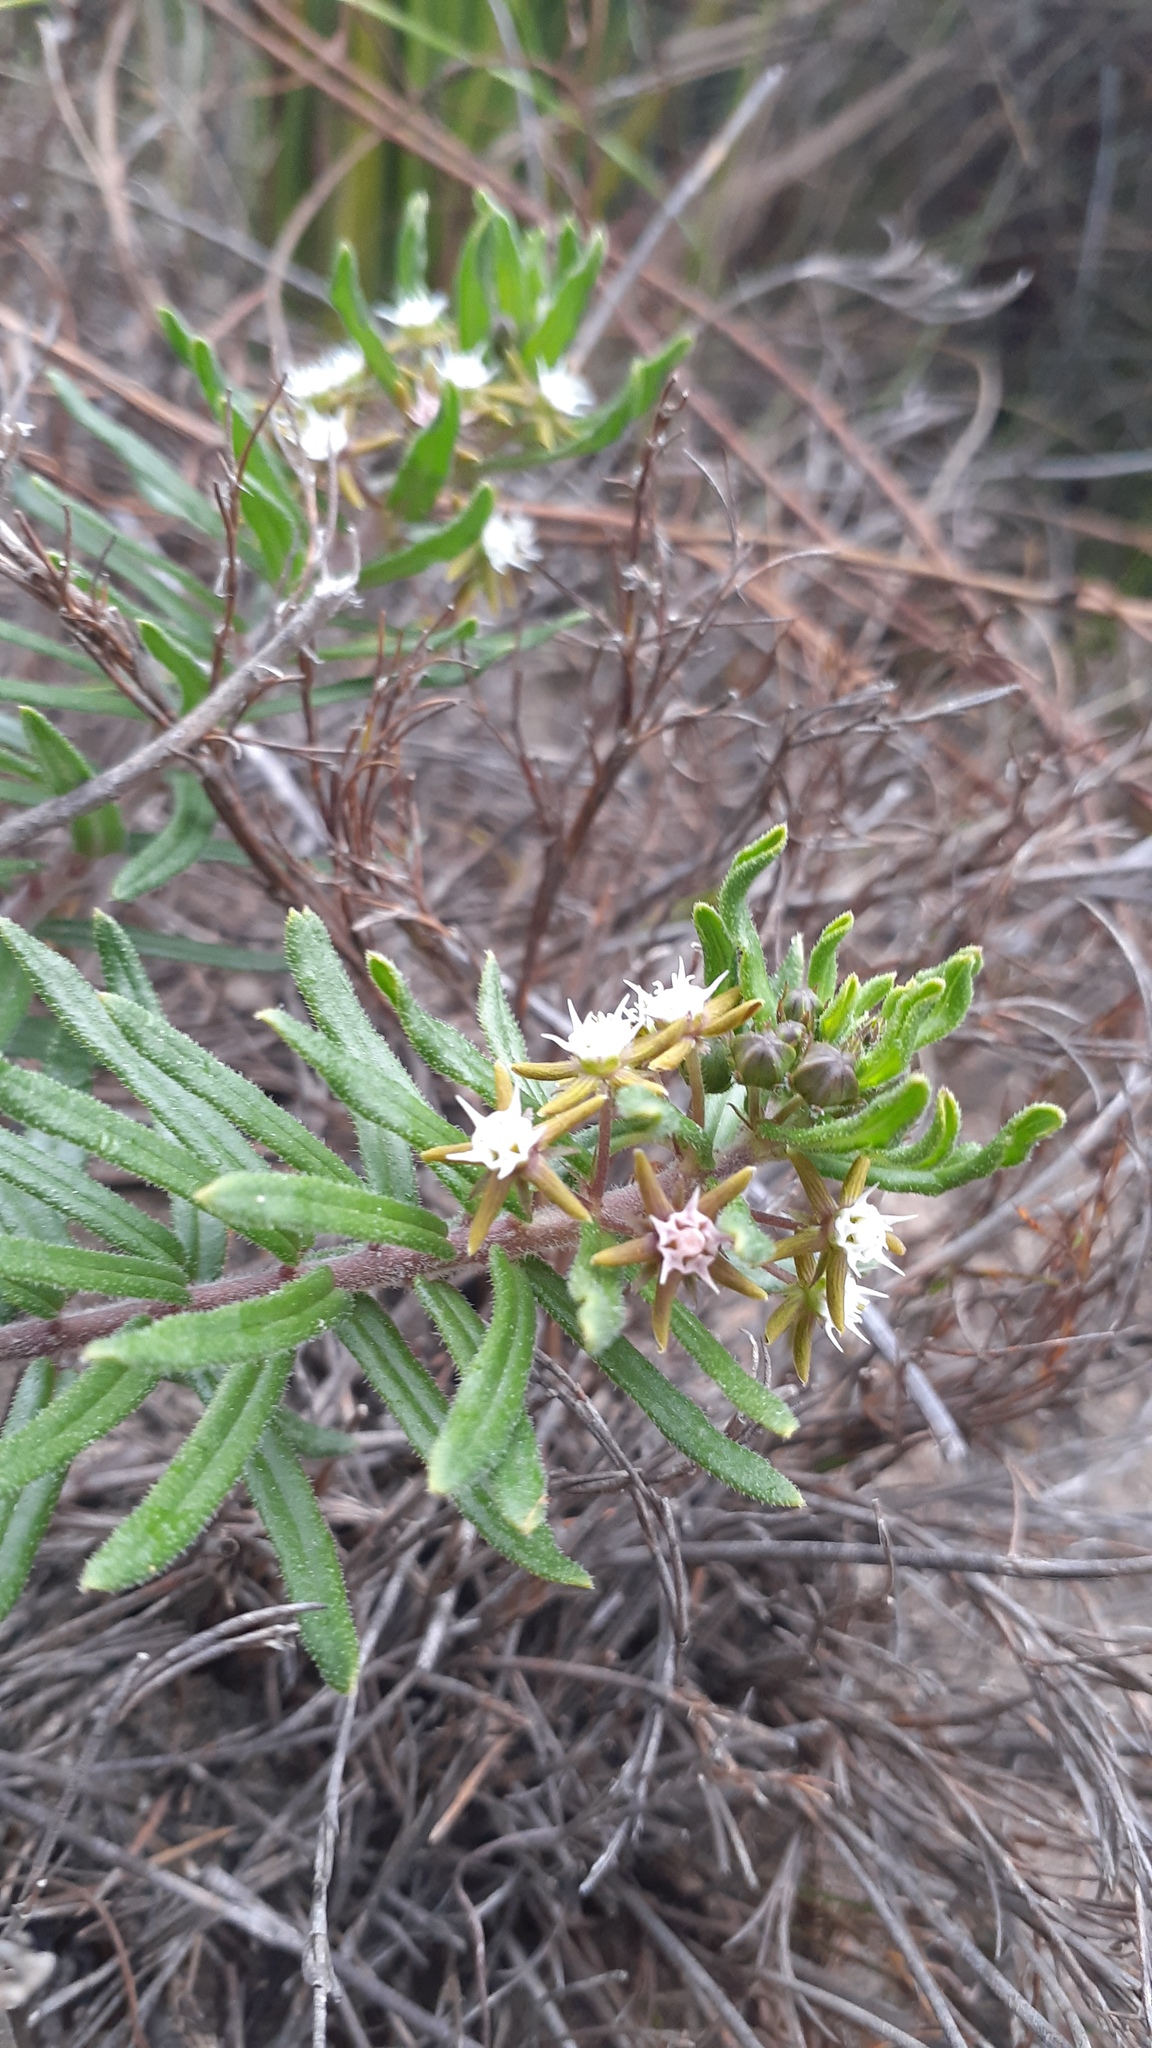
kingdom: Plantae
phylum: Tracheophyta
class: Magnoliopsida
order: Gentianales
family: Apocynaceae
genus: Aspidoglossum
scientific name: Aspidoglossum heterophyllum
